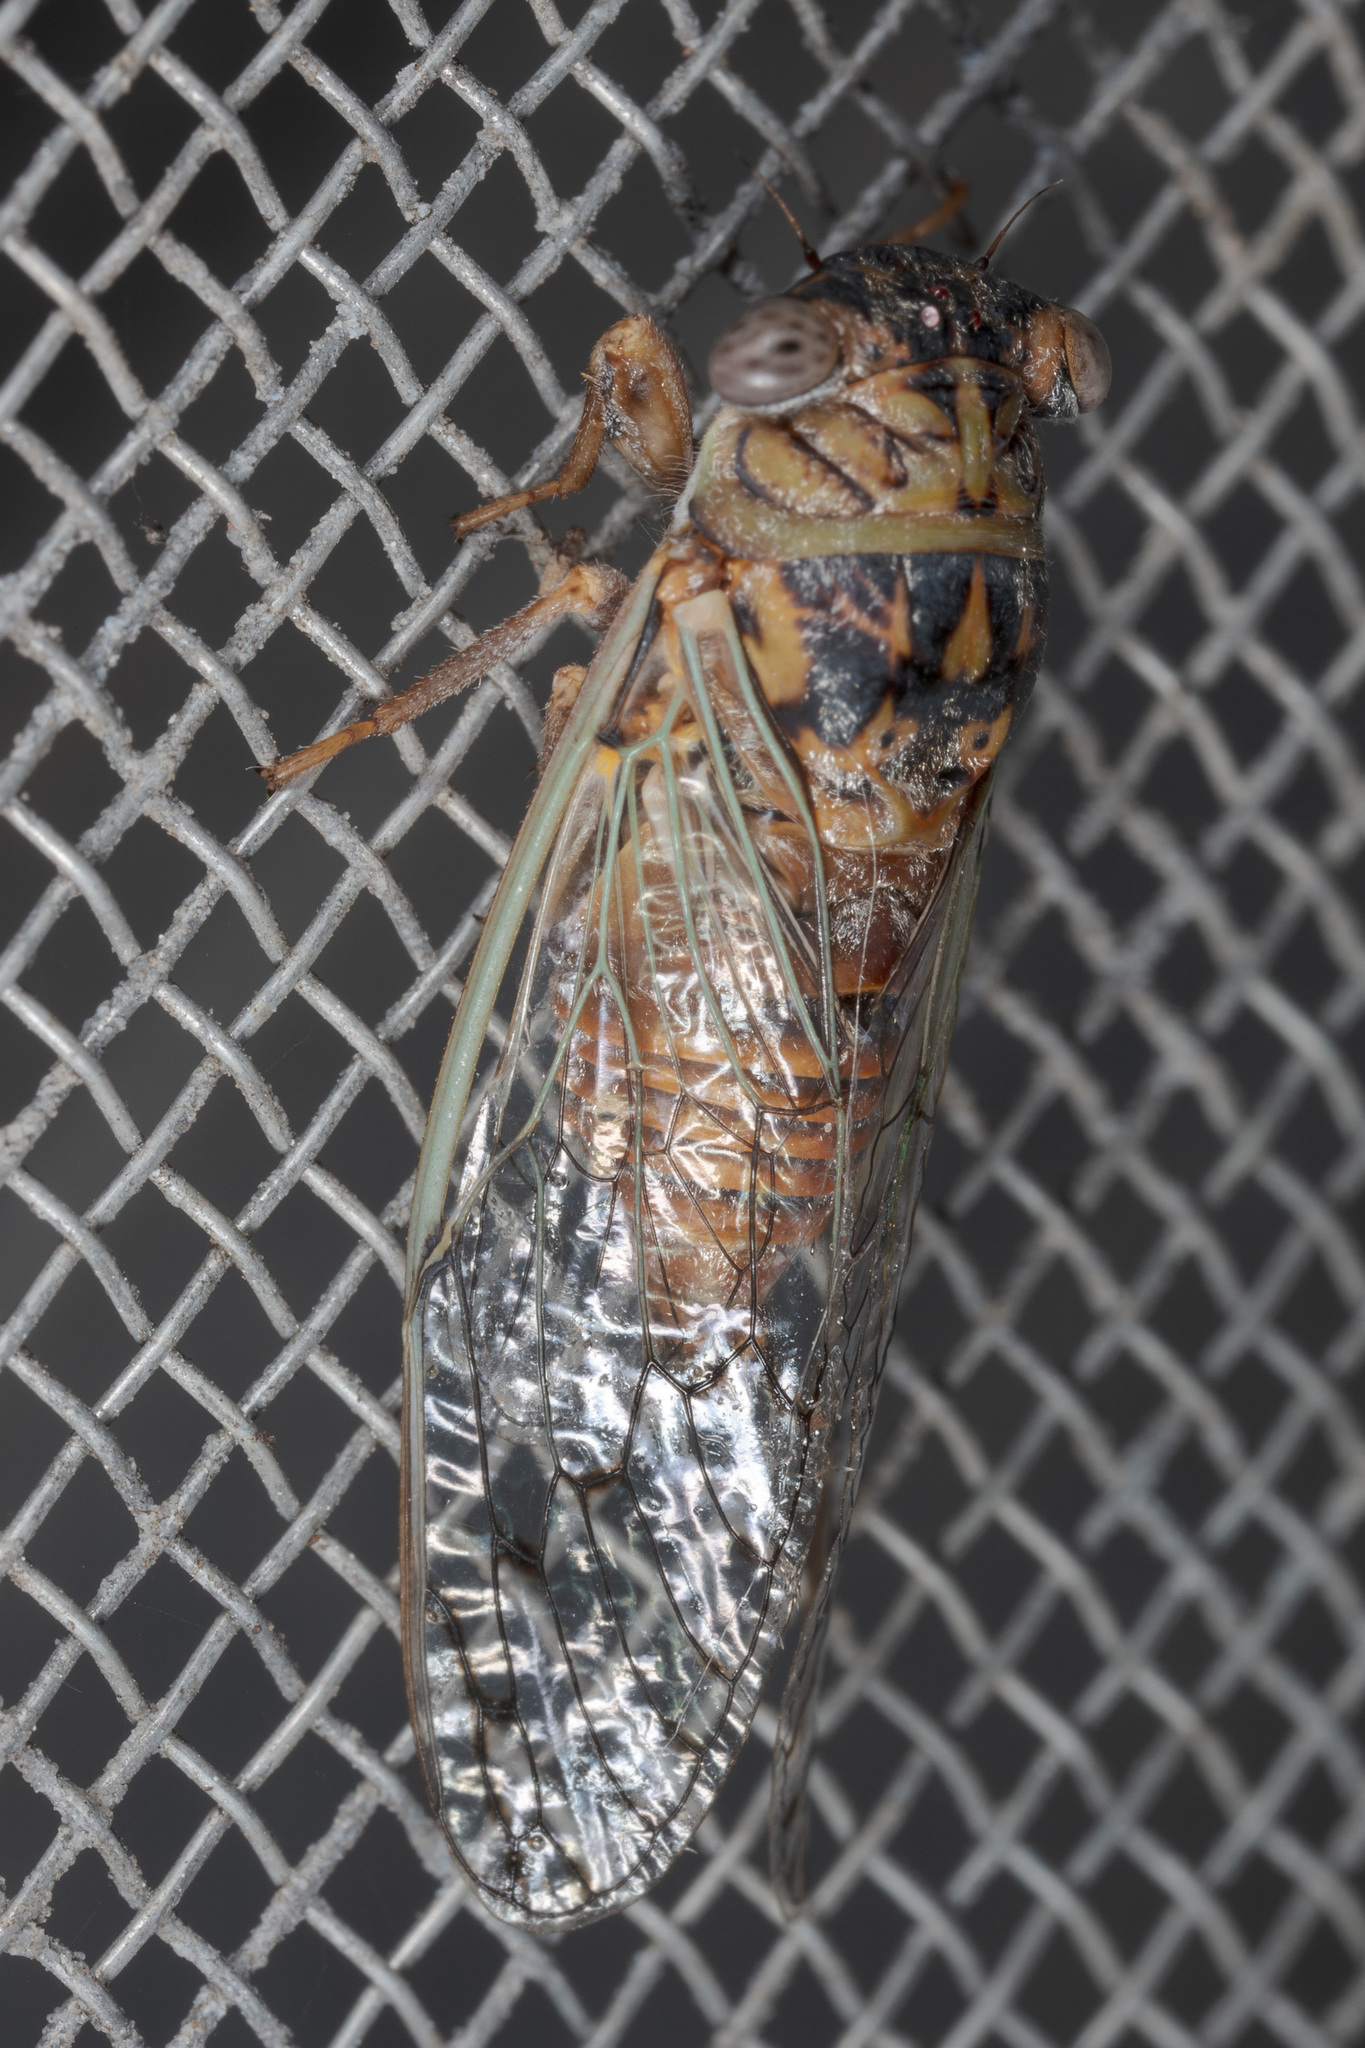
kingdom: Animalia
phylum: Arthropoda
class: Insecta
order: Hemiptera
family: Cicadidae
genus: Pacarina
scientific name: Pacarina puella
